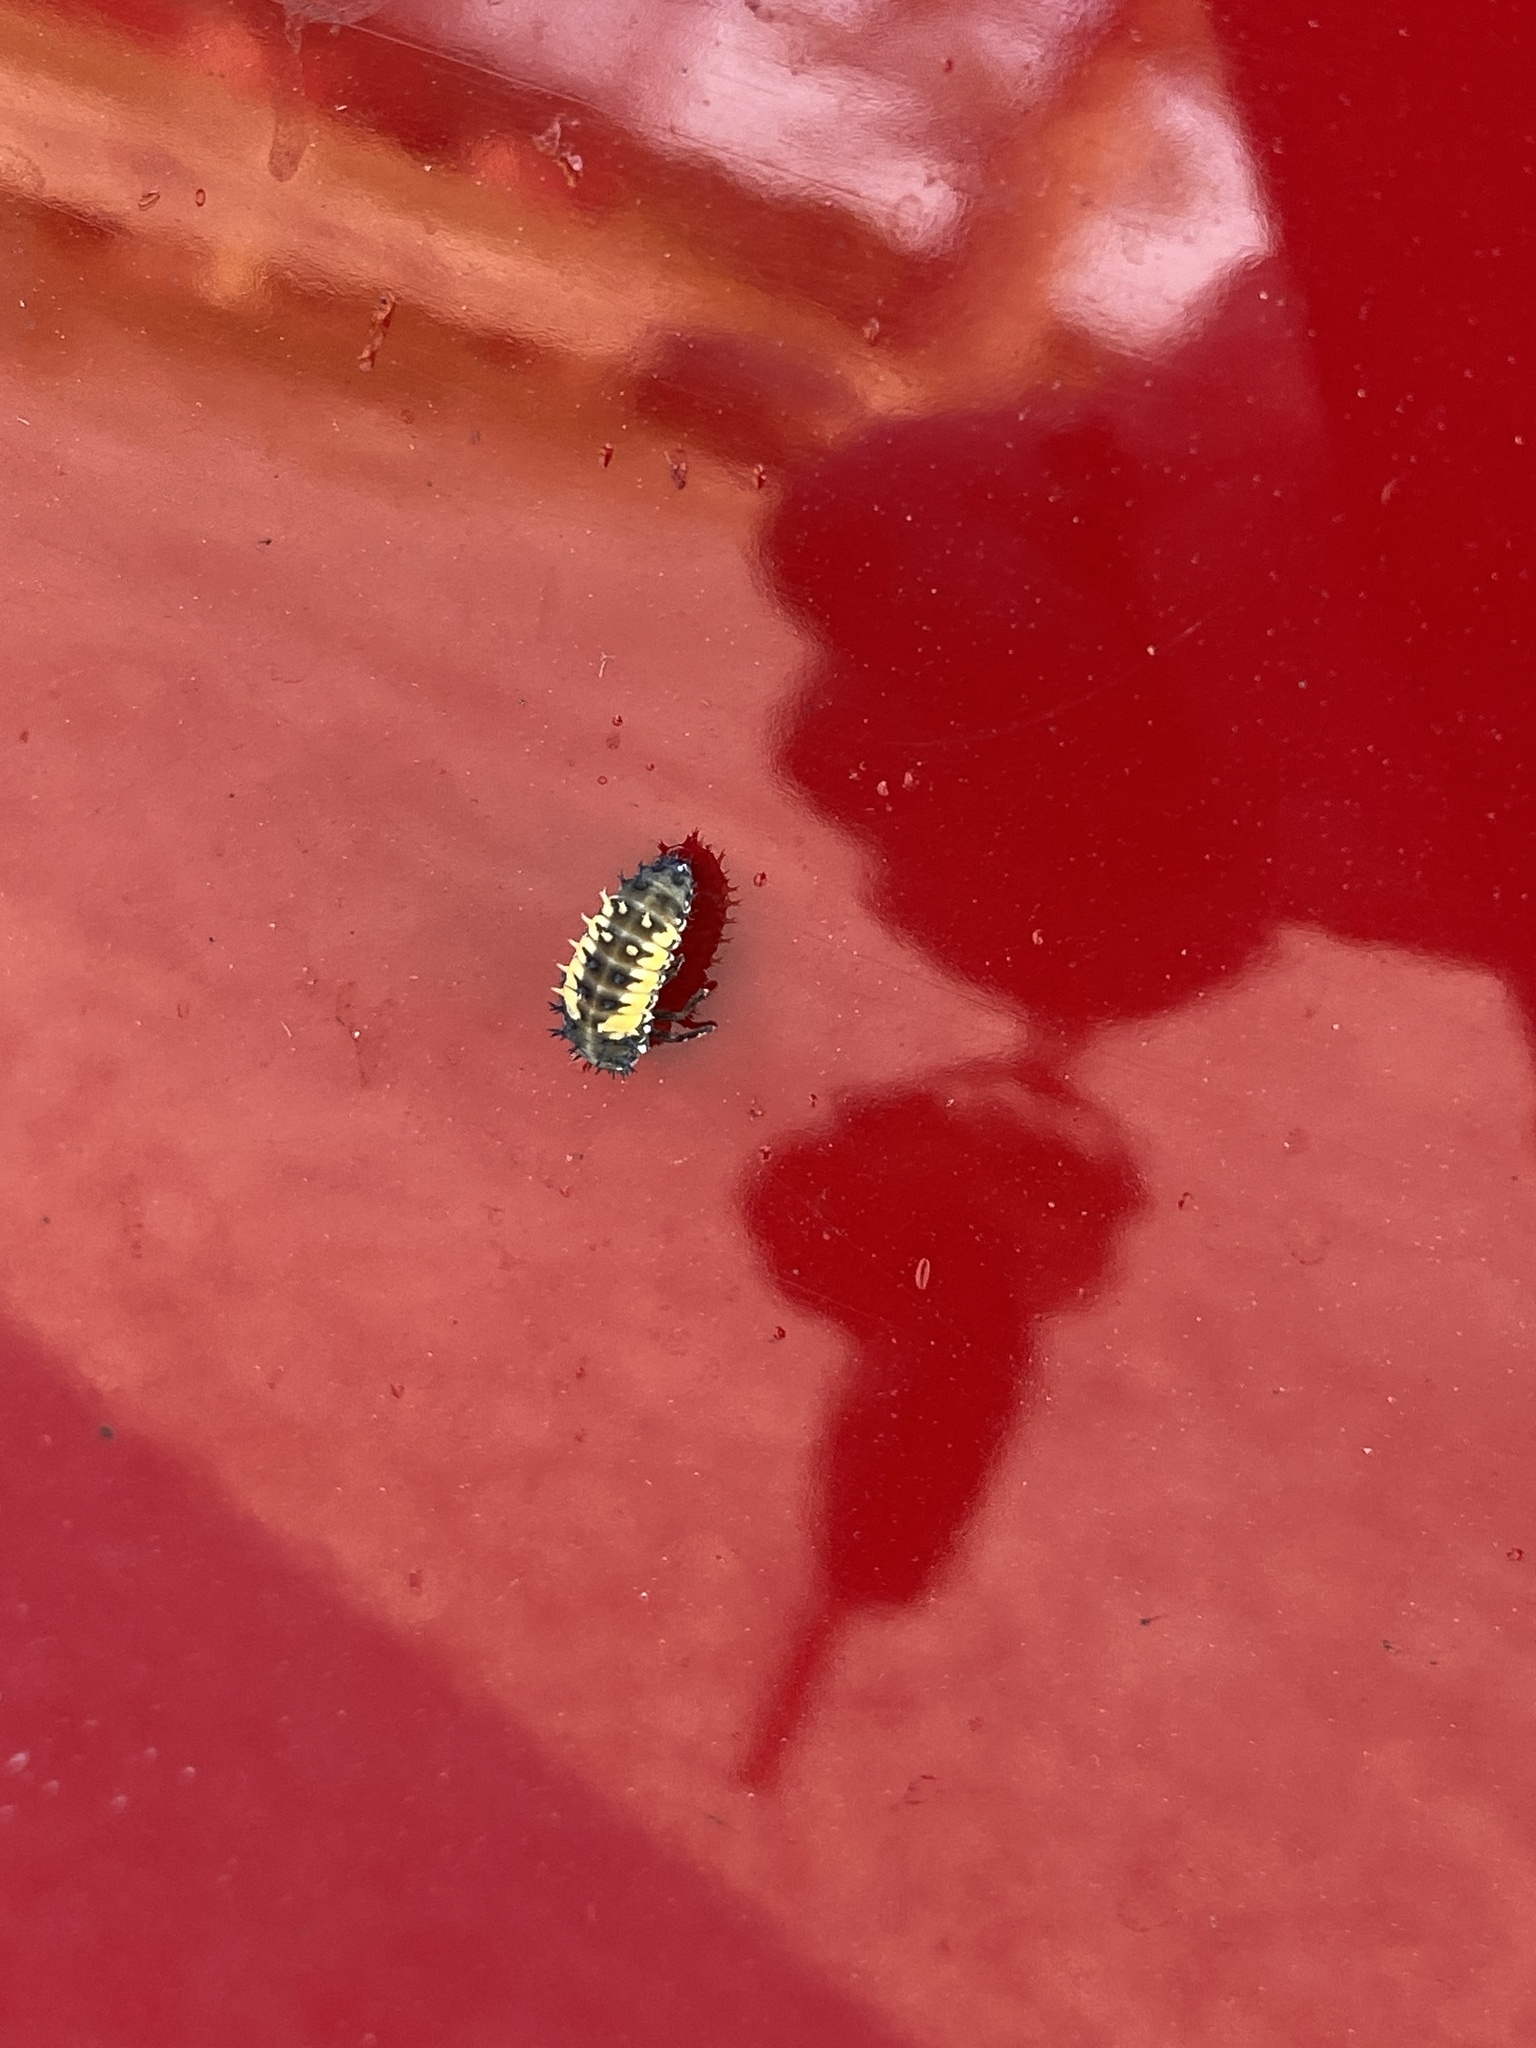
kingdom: Animalia
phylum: Arthropoda
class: Insecta
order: Coleoptera
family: Coccinellidae
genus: Harmonia
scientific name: Harmonia axyridis
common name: Harlequin ladybird
